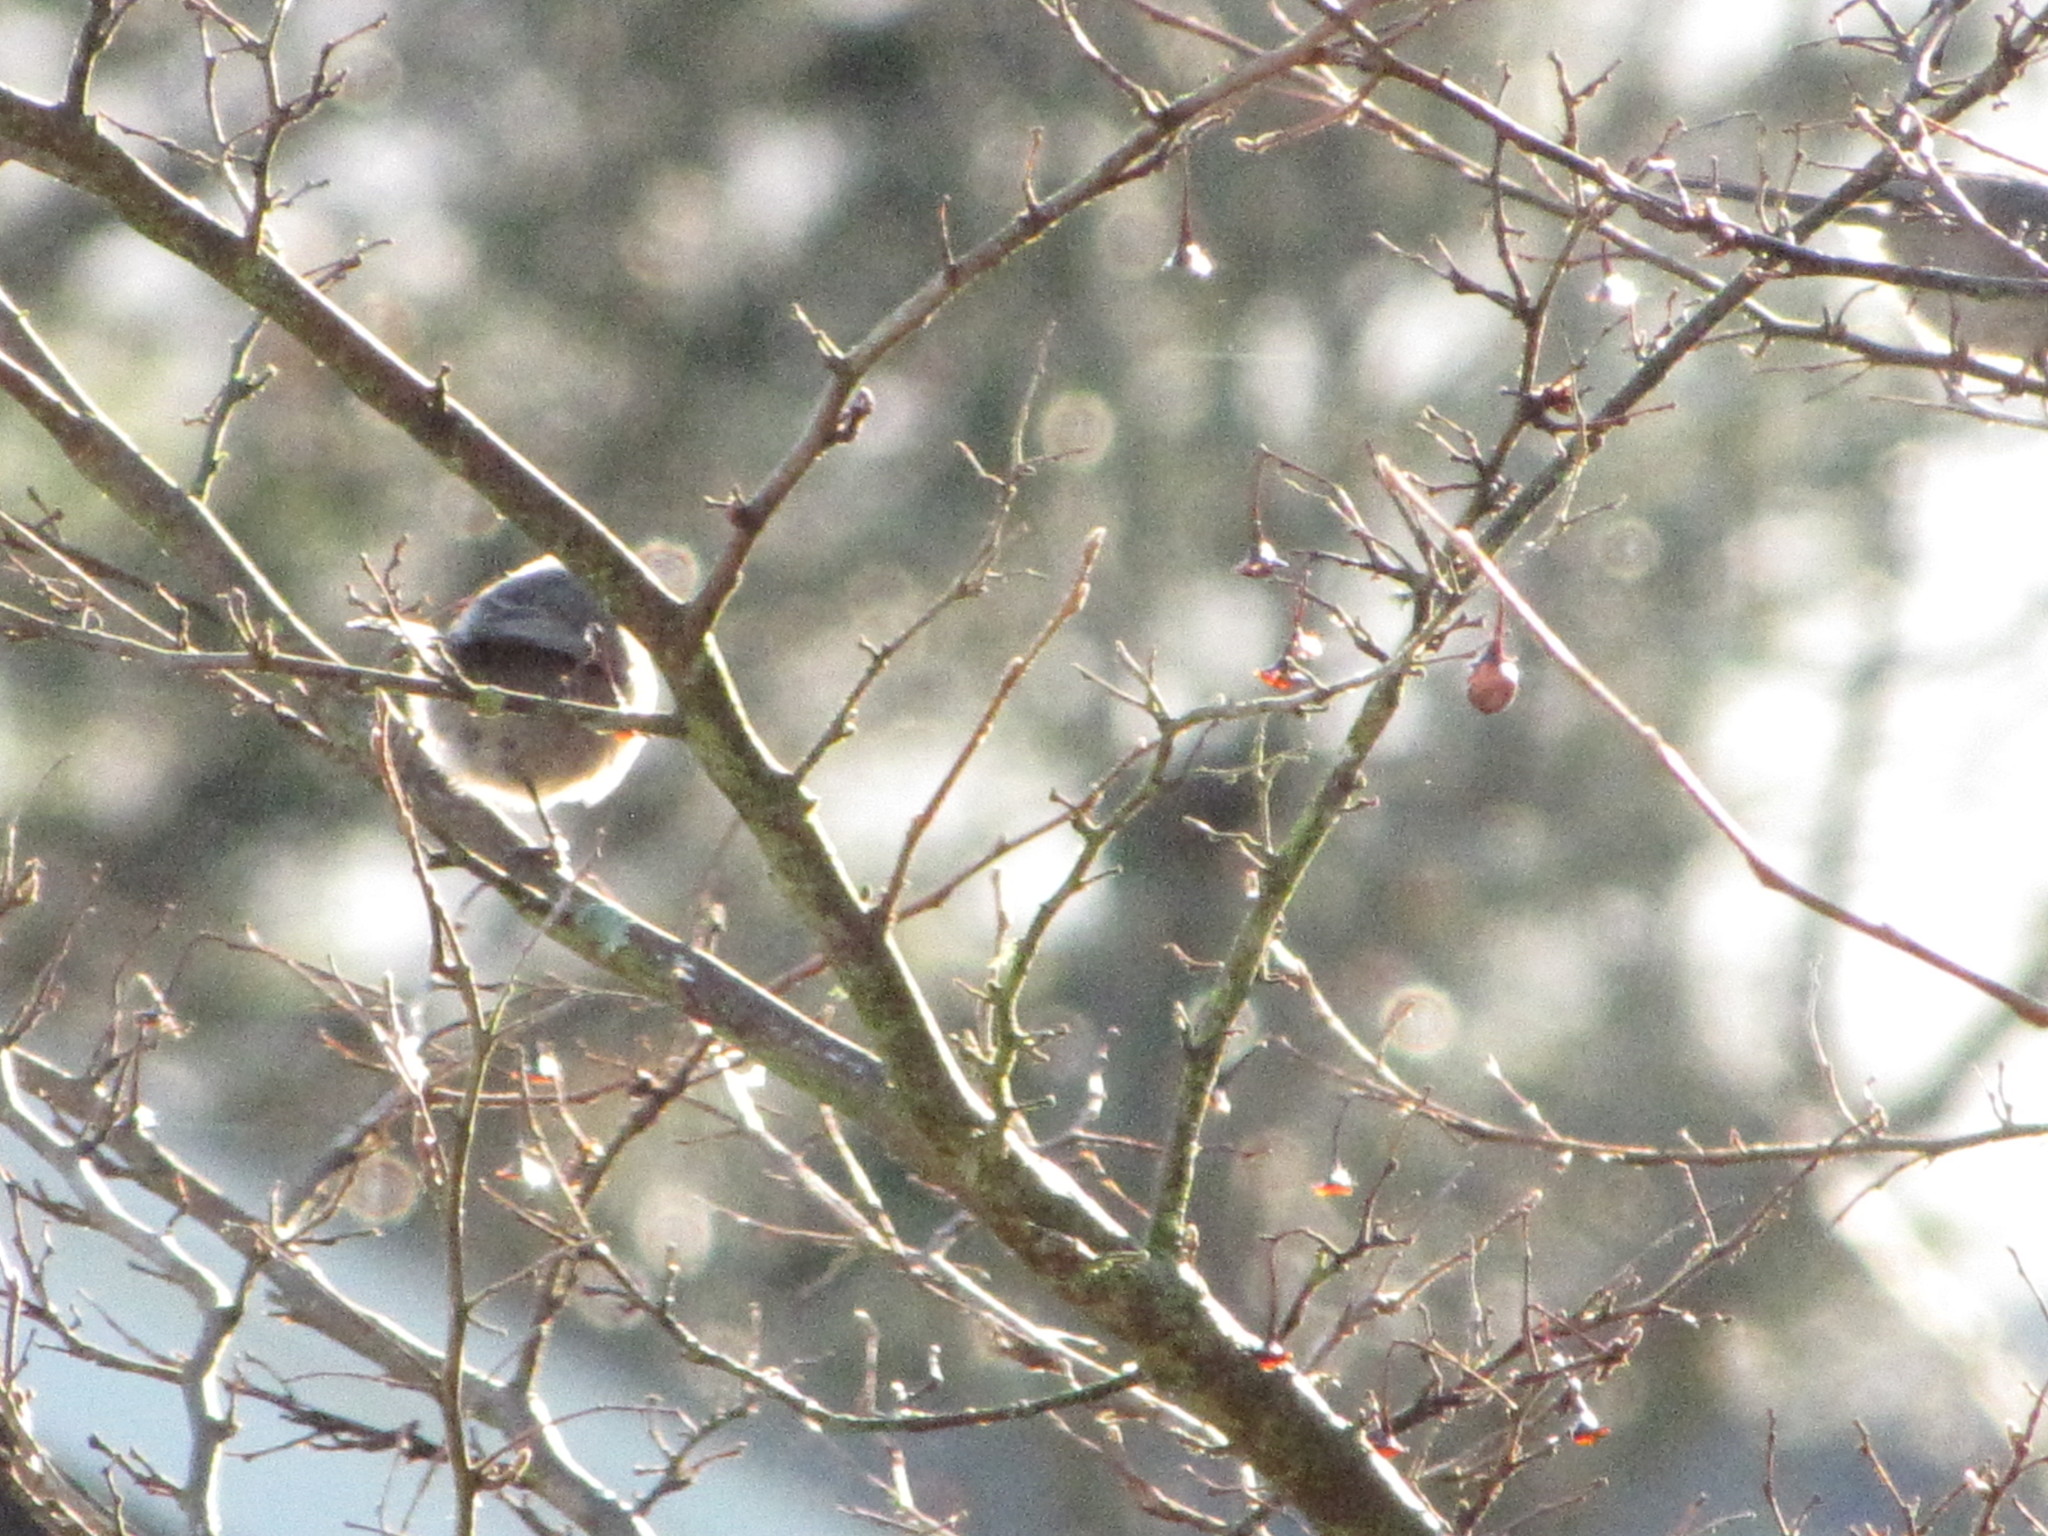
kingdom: Animalia
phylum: Chordata
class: Aves
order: Passeriformes
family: Aegithalidae
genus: Psaltriparus
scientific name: Psaltriparus minimus
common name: American bushtit
